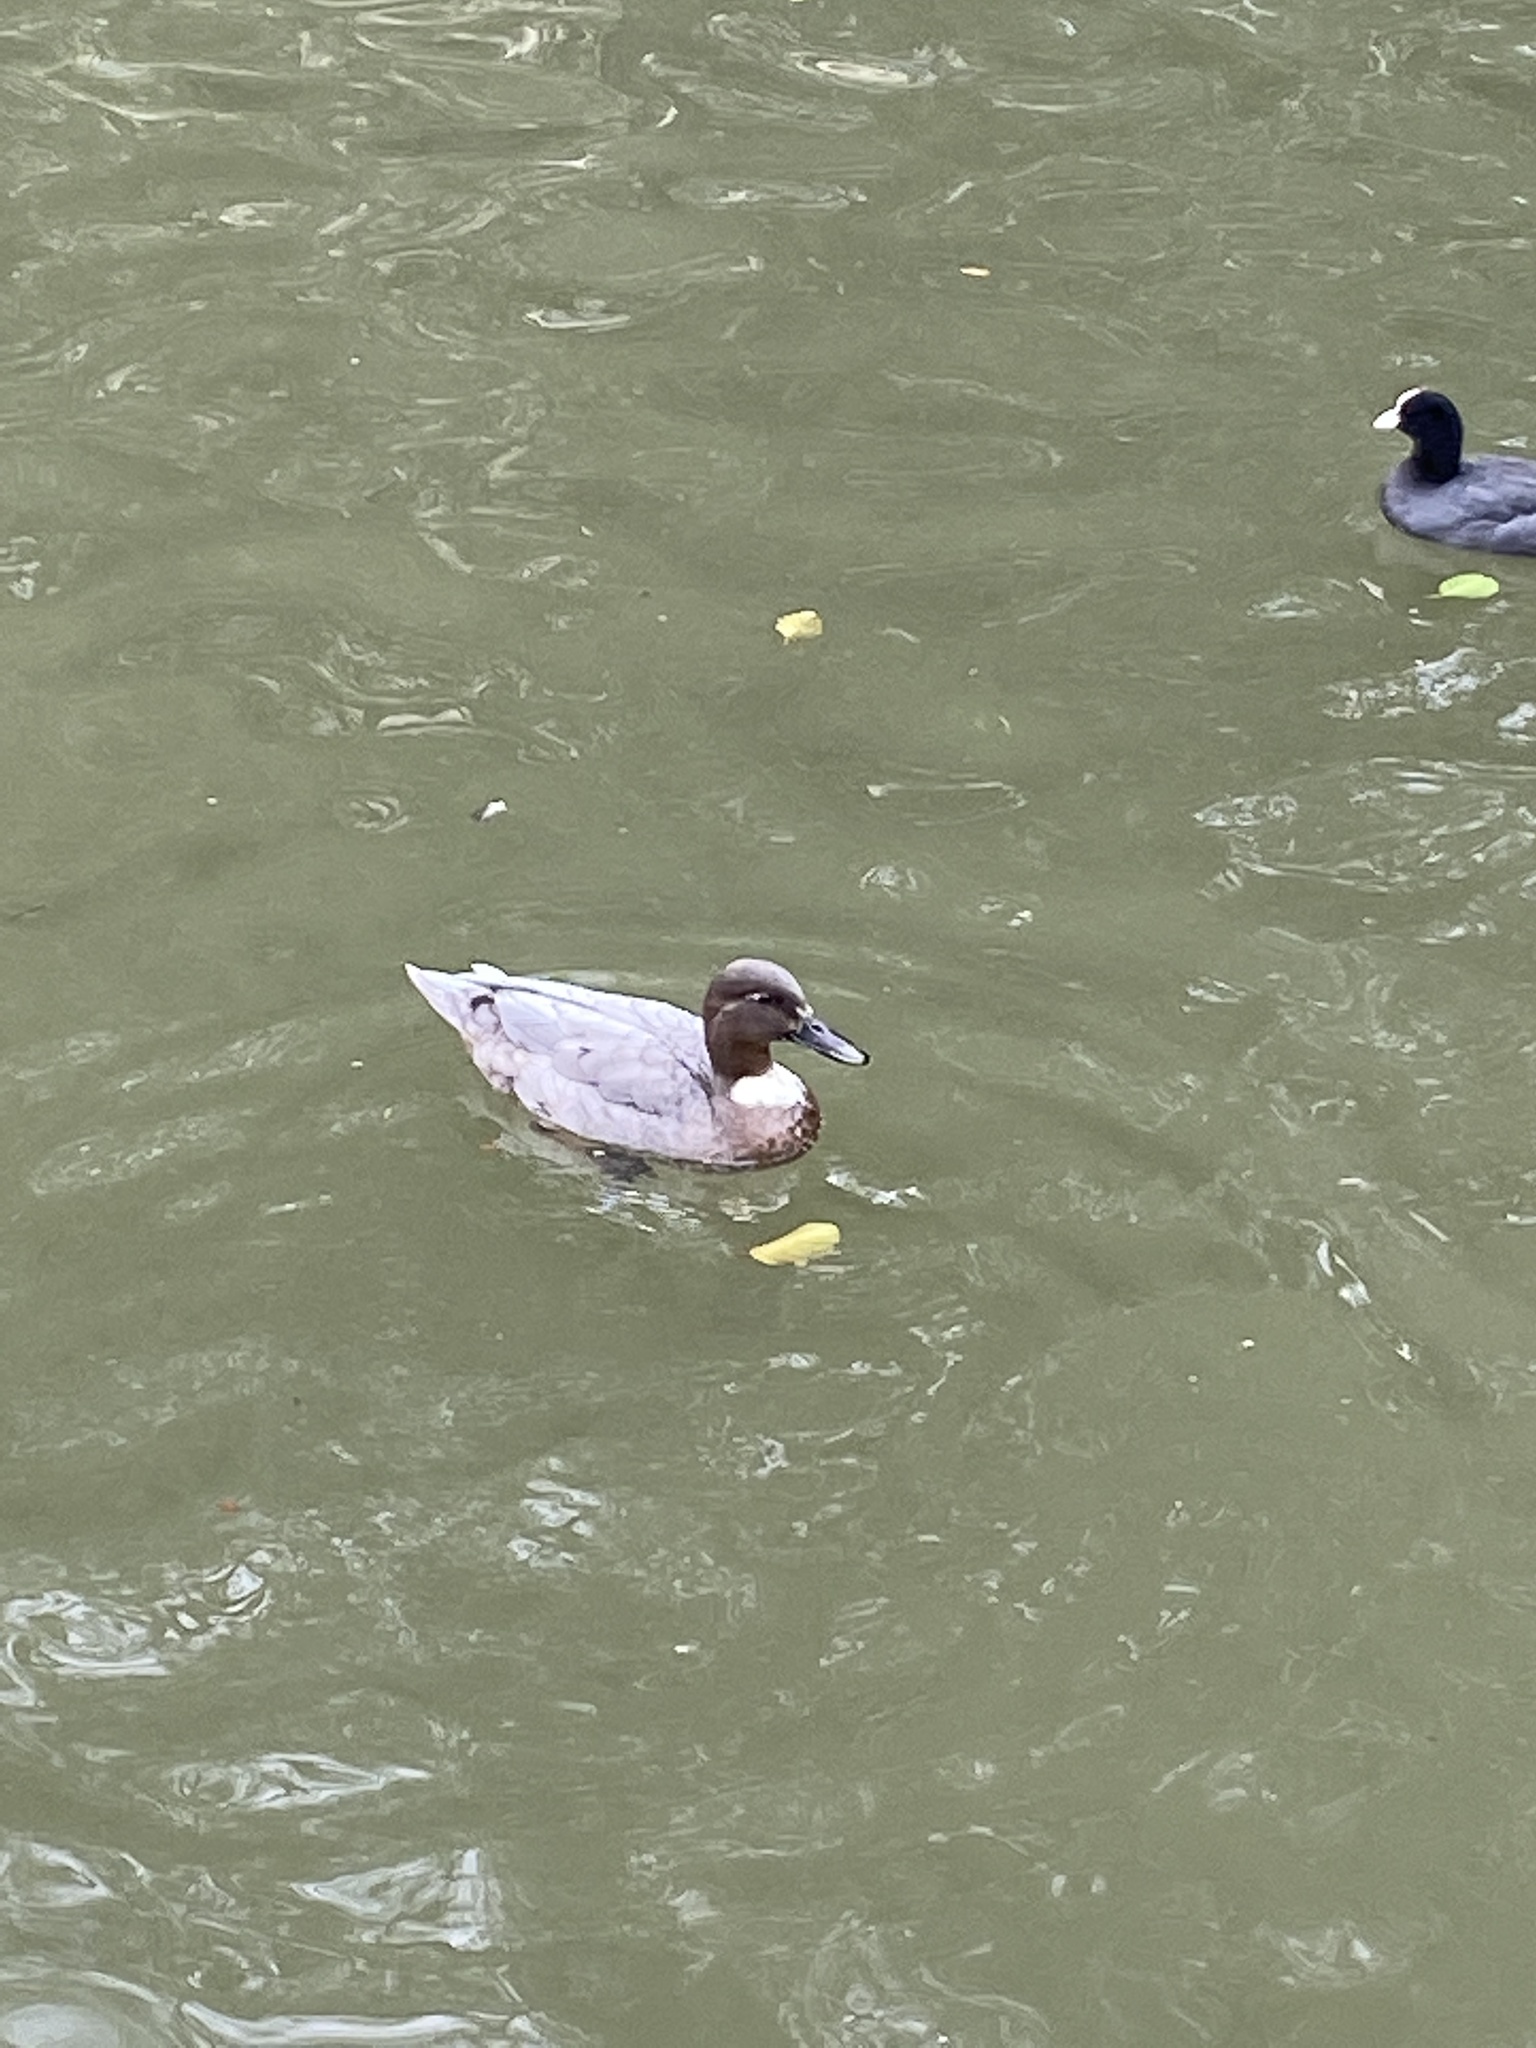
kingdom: Animalia
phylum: Chordata
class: Aves
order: Anseriformes
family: Anatidae
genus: Anas
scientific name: Anas platyrhynchos
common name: Mallard
